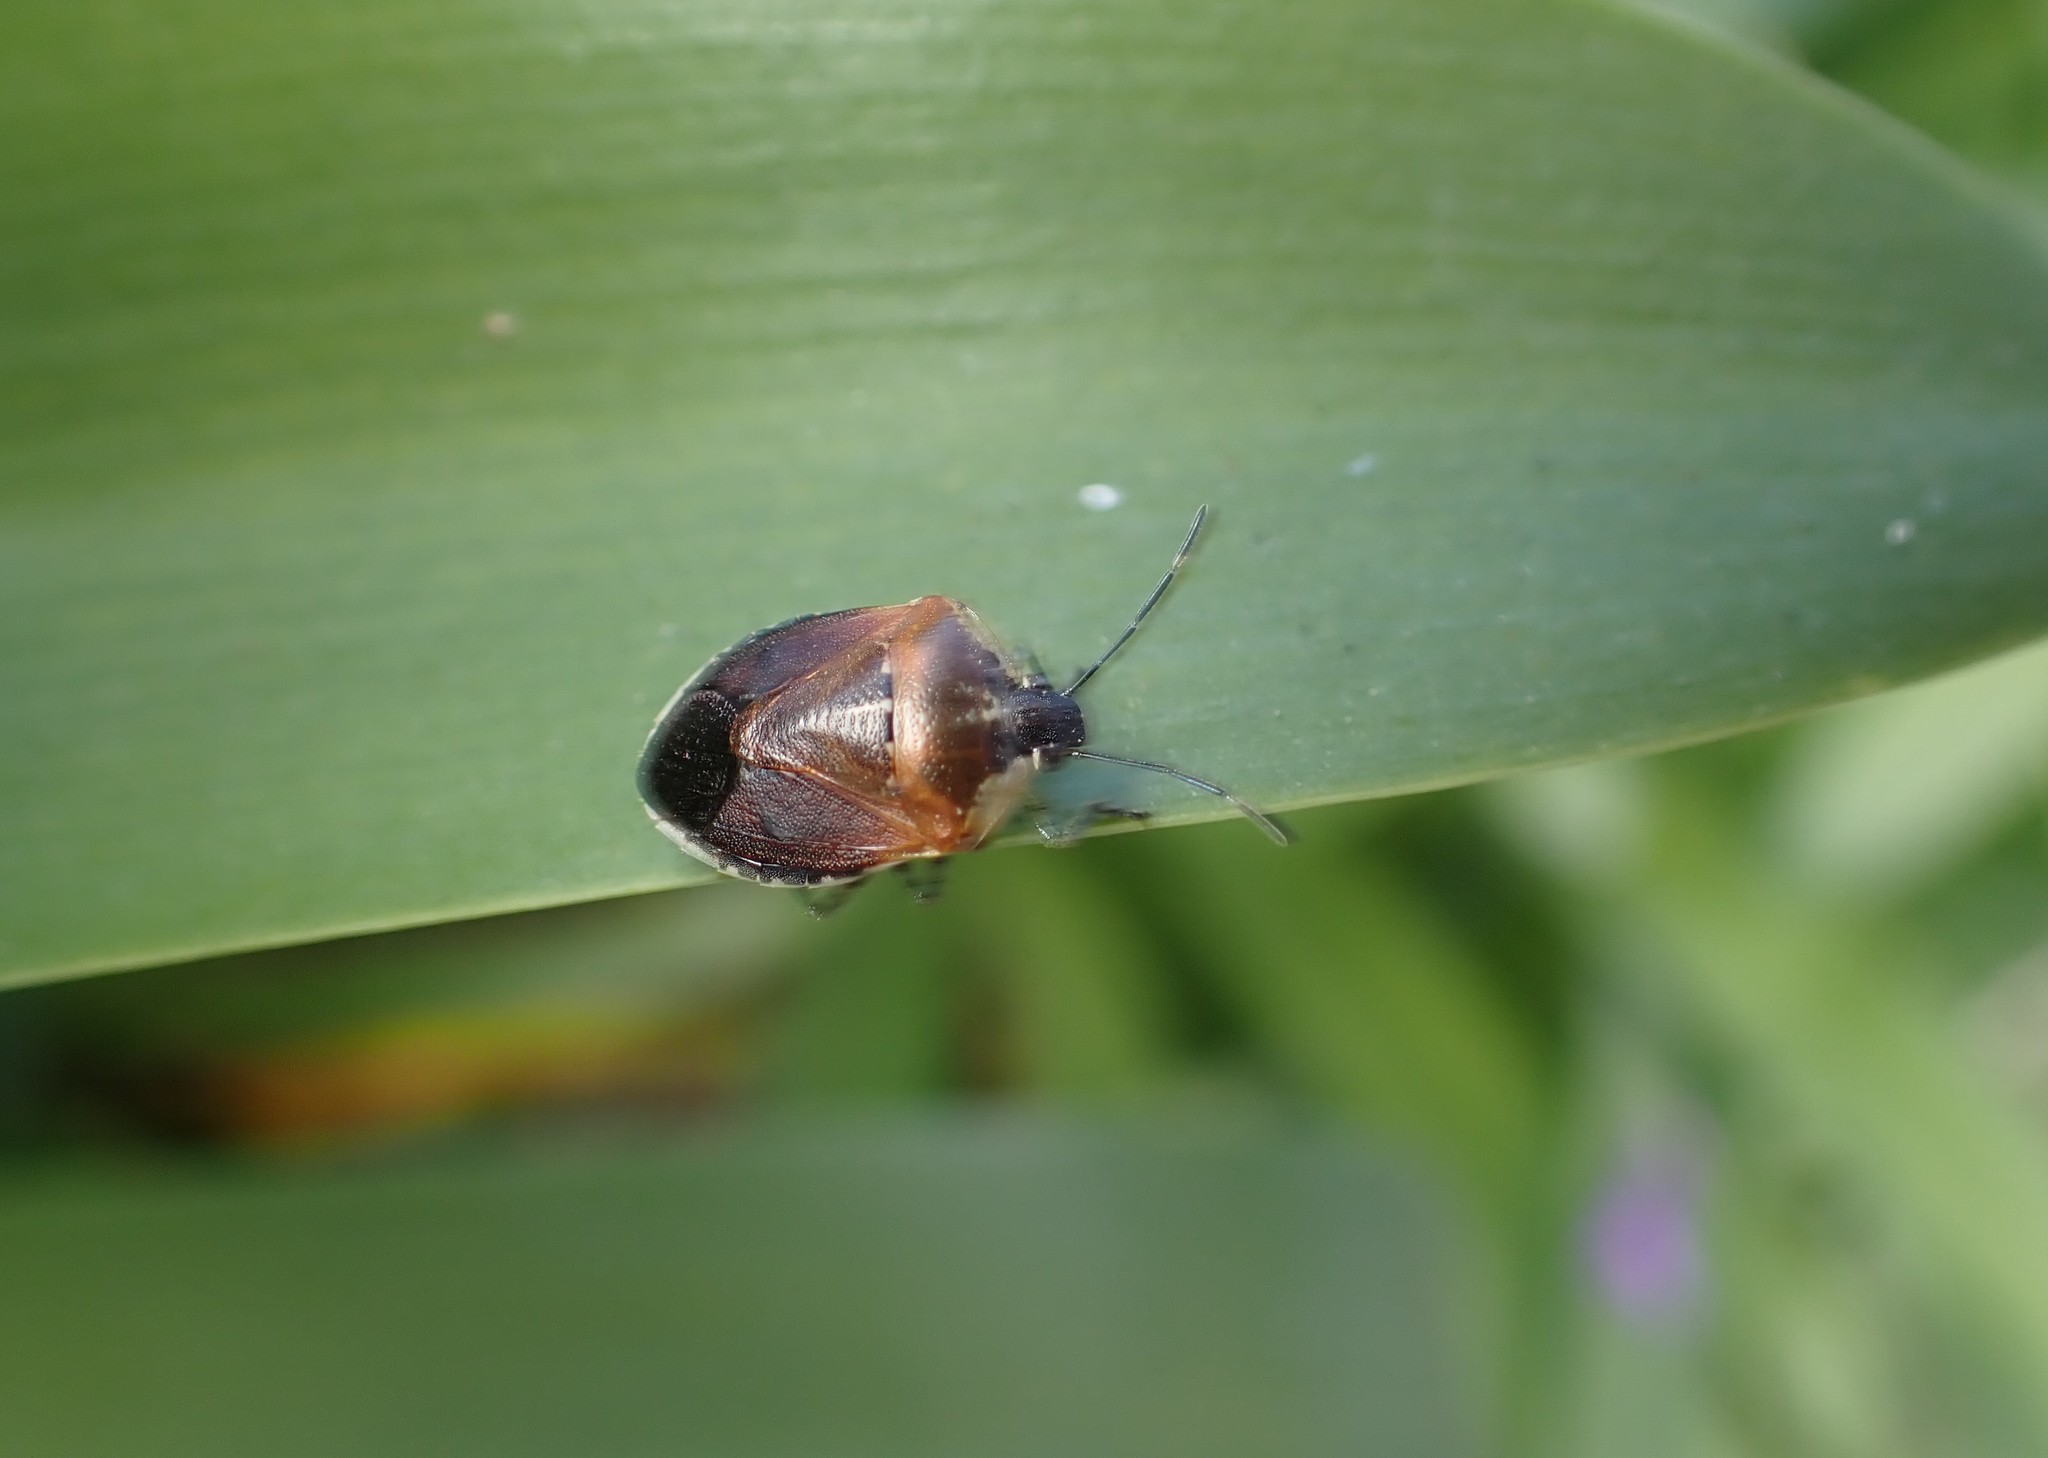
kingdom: Animalia
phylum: Arthropoda
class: Insecta
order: Hemiptera
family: Pentatomidae
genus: Monteithiella
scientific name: Monteithiella
